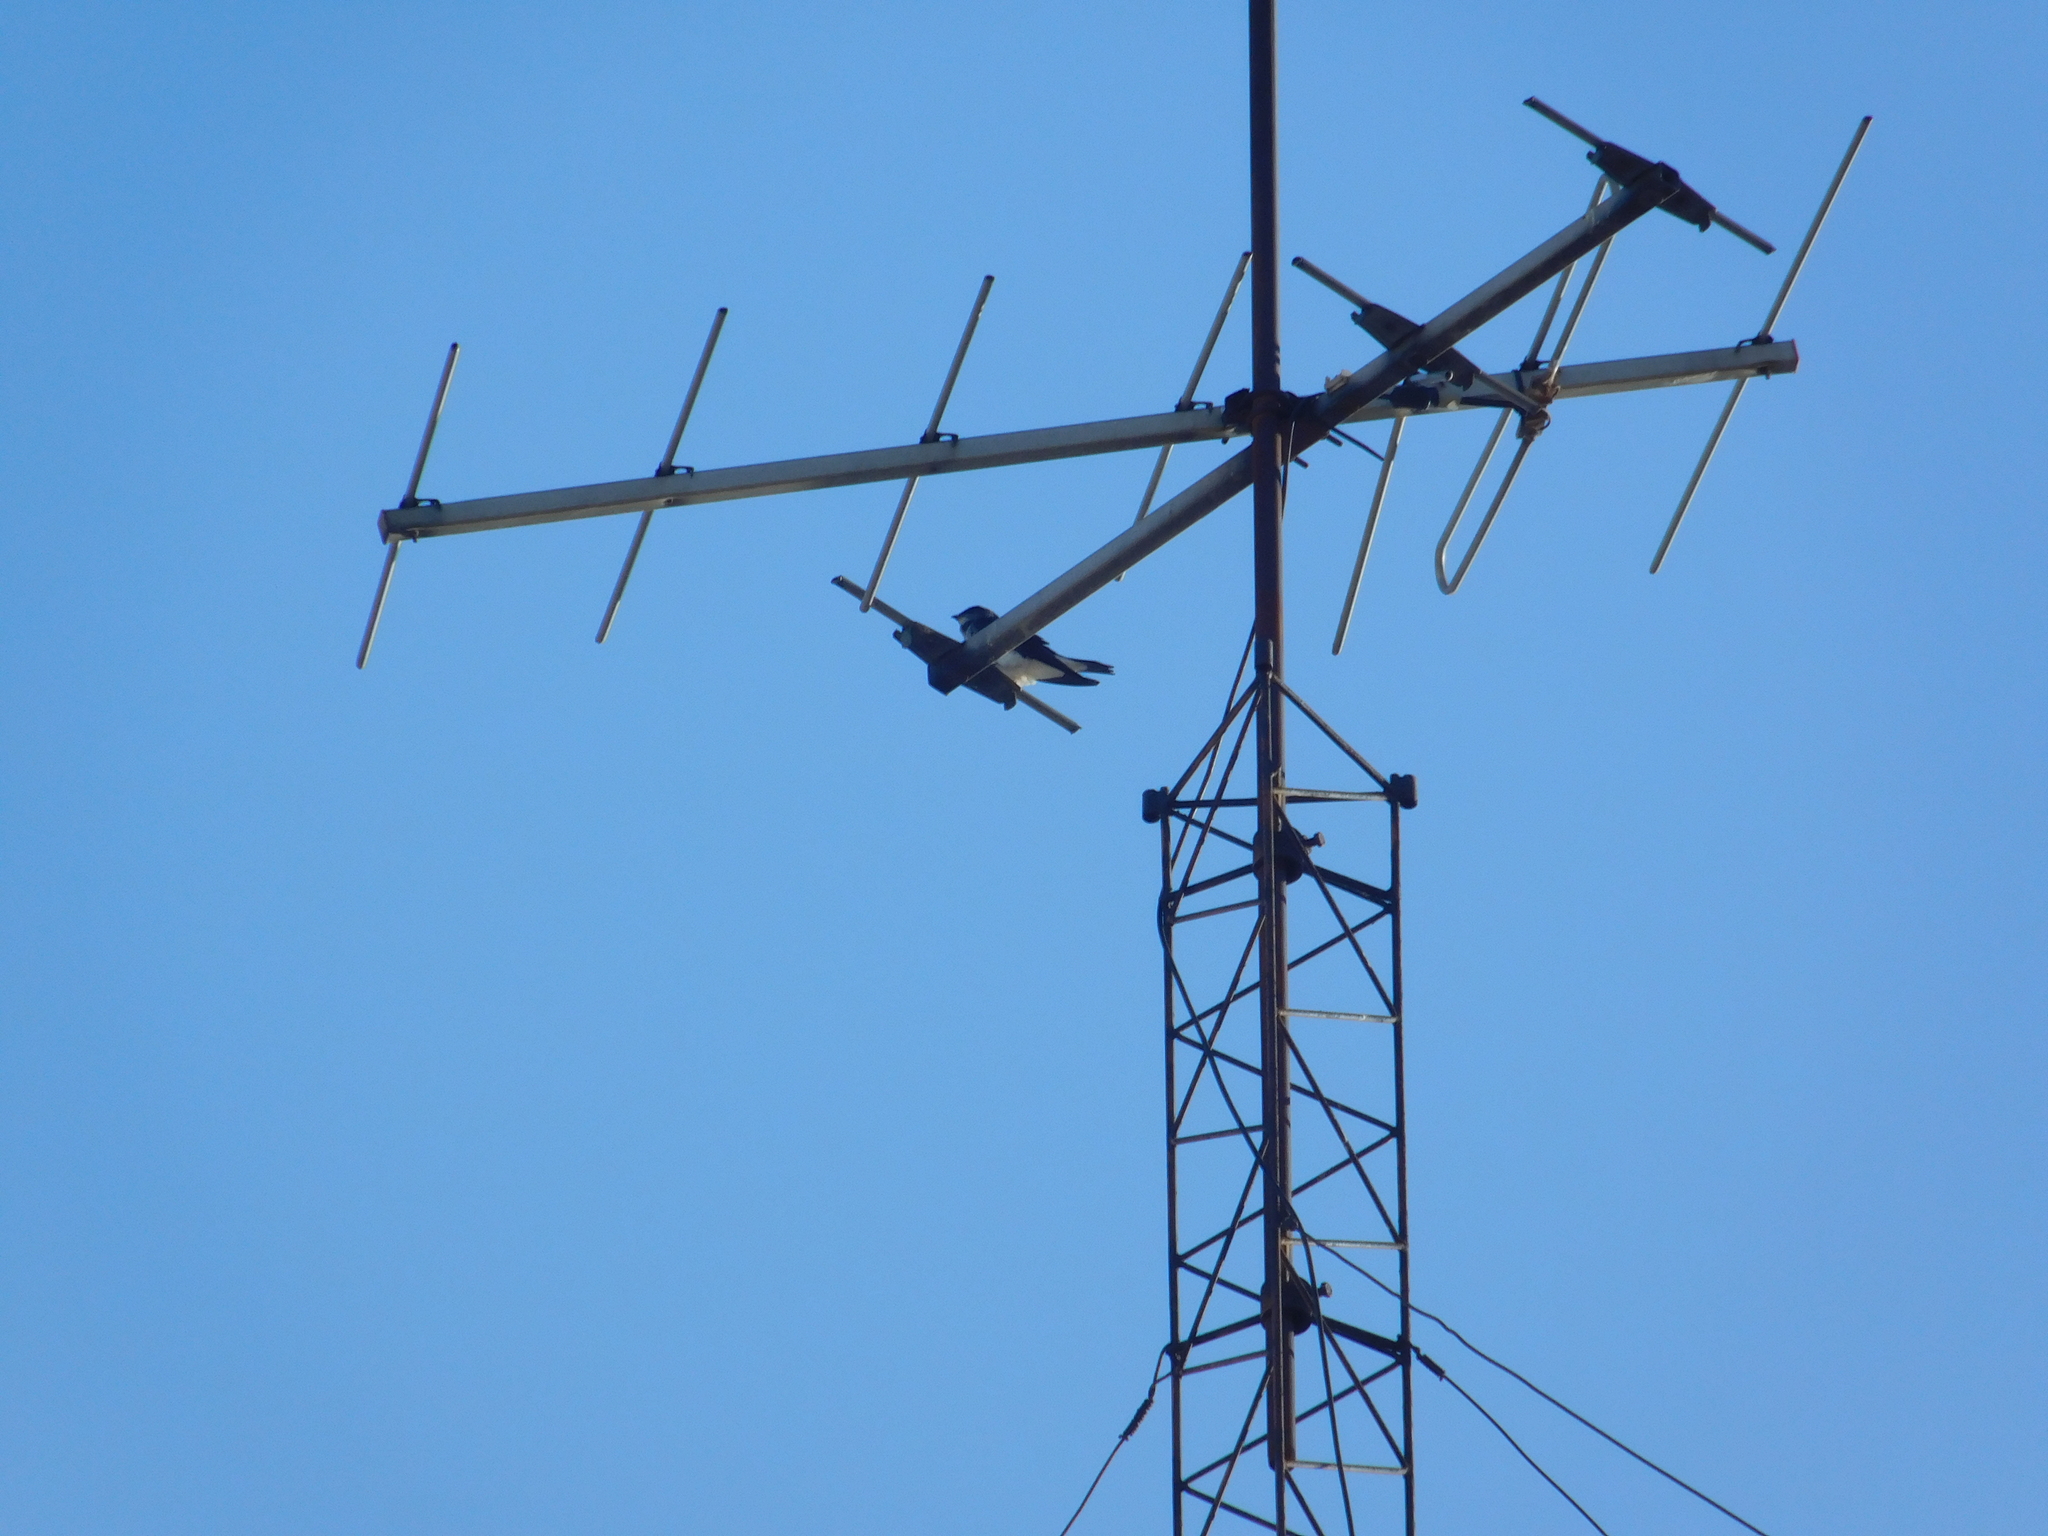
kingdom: Animalia
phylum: Chordata
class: Aves
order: Passeriformes
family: Hirundinidae
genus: Progne
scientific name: Progne chalybea
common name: Grey-breasted martin
